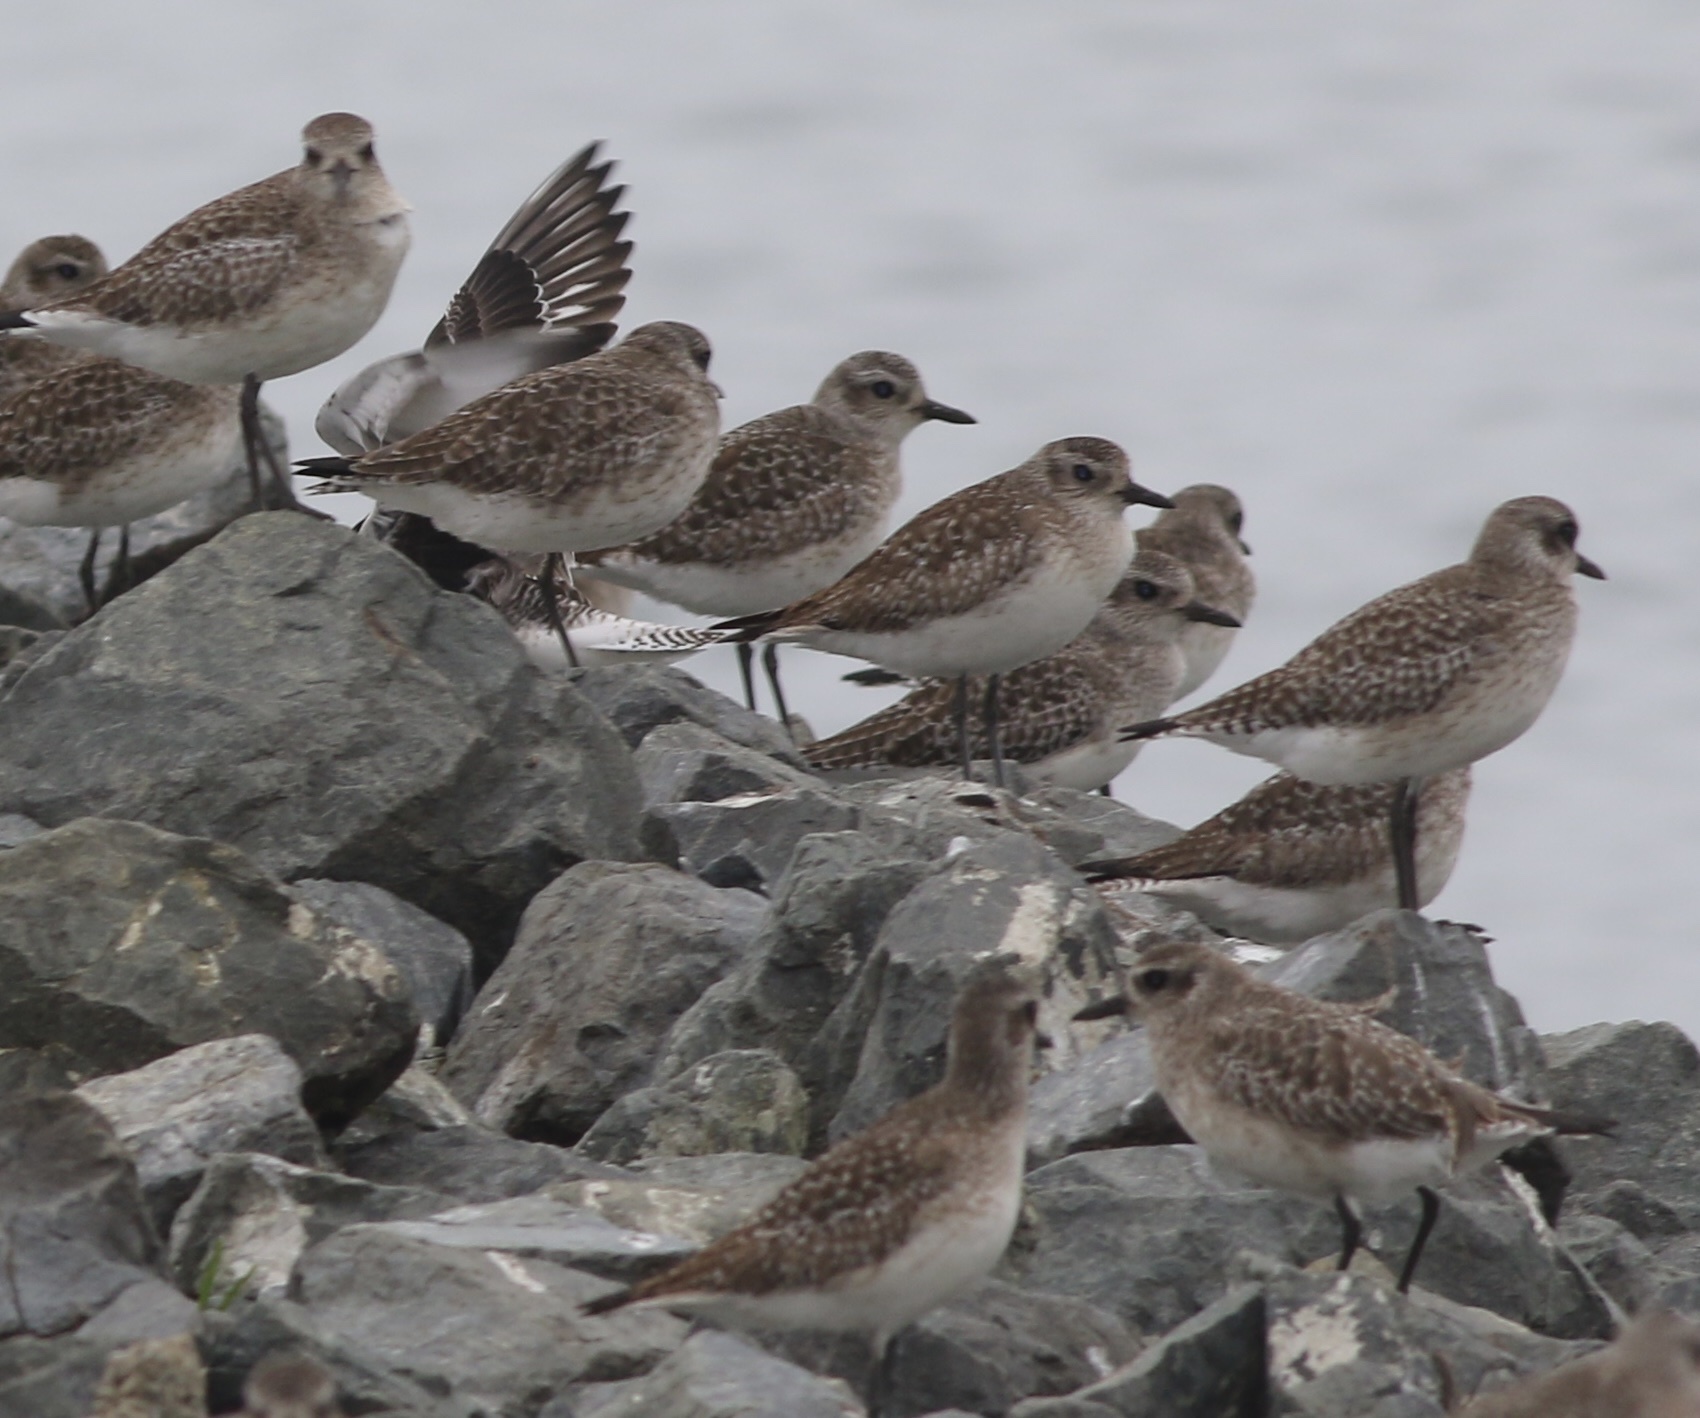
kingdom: Animalia
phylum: Chordata
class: Aves
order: Charadriiformes
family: Charadriidae
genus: Pluvialis
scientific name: Pluvialis squatarola
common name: Grey plover
